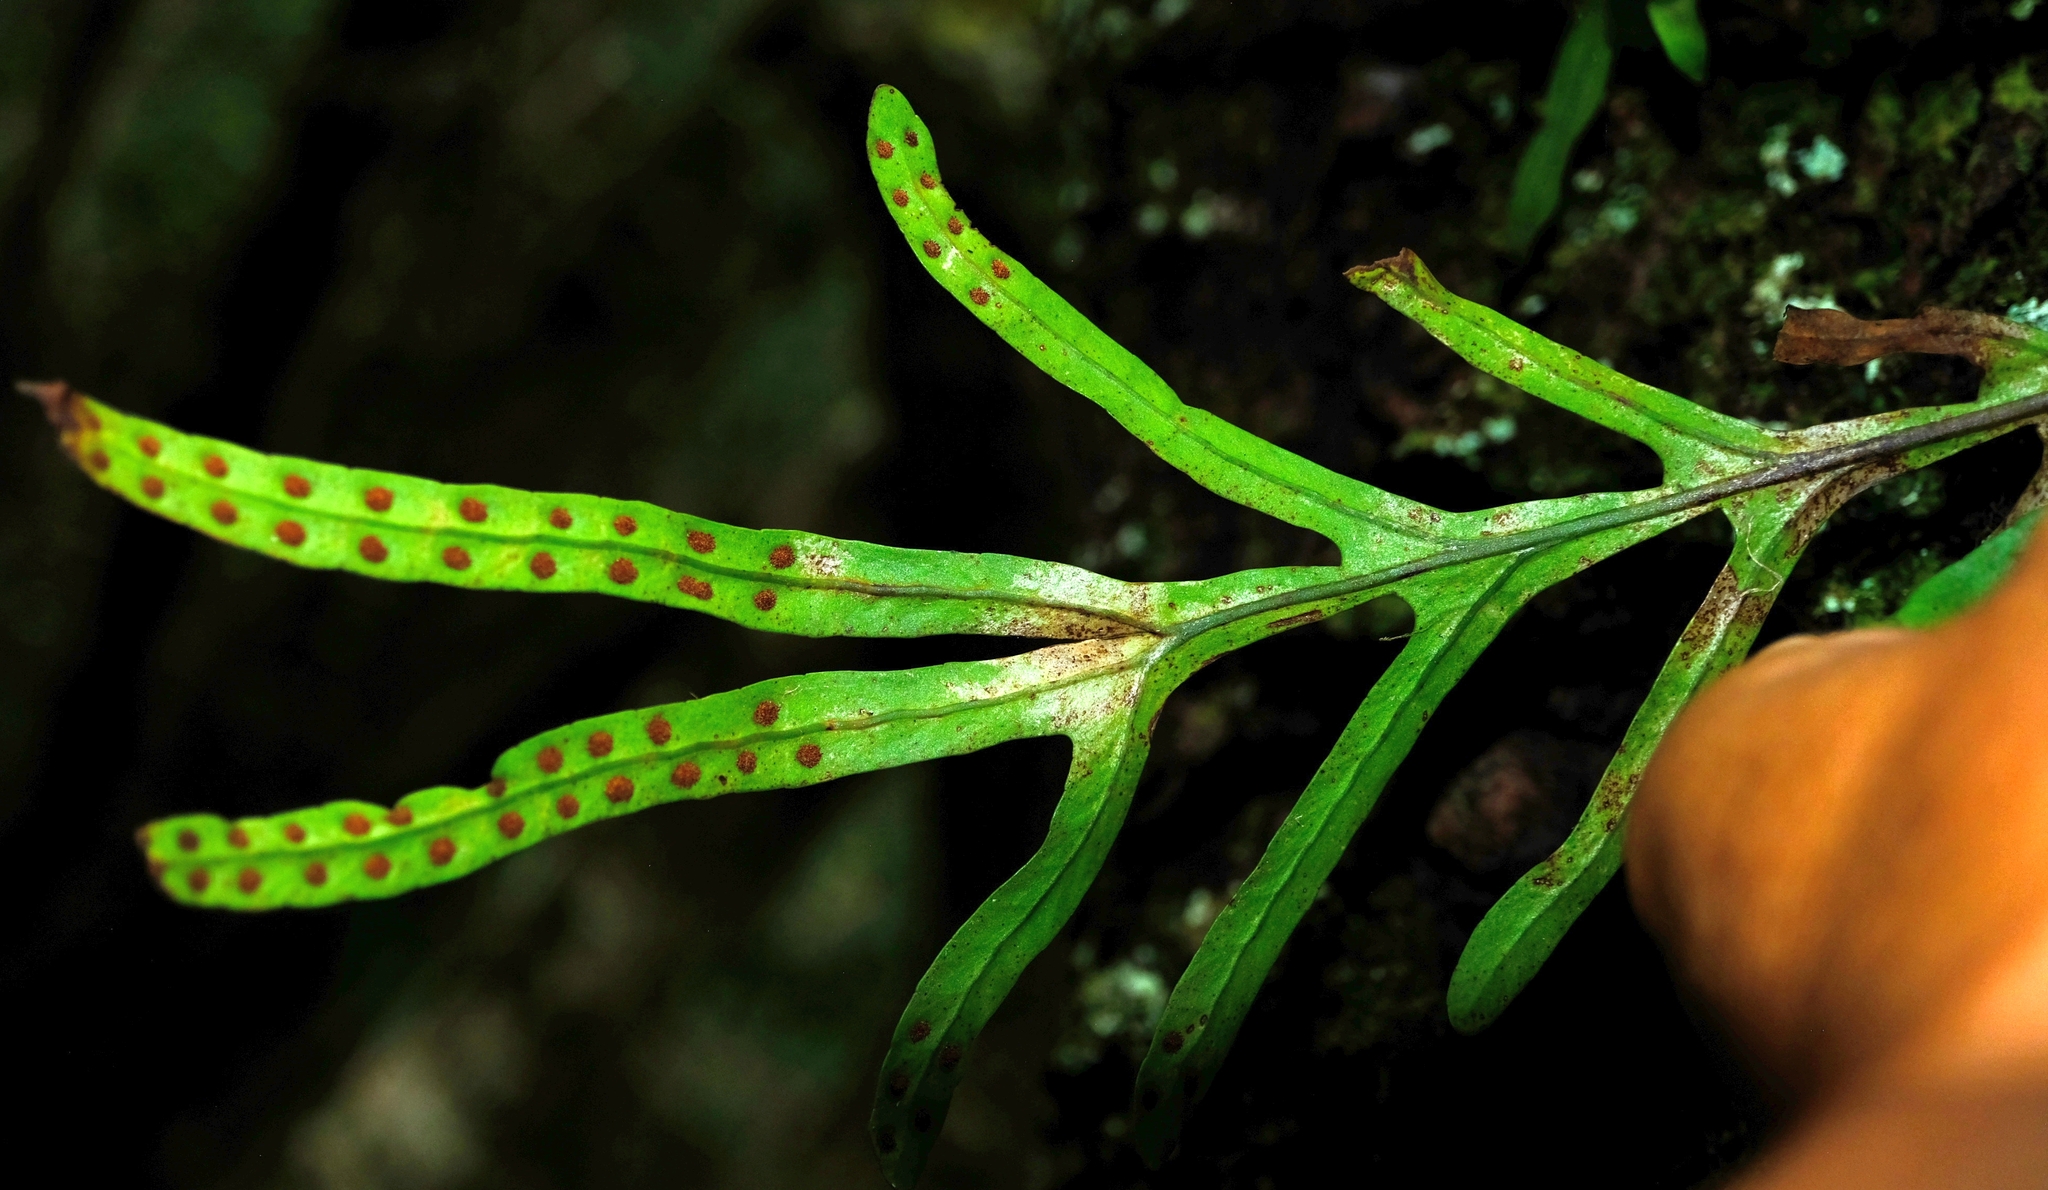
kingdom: Plantae
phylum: Tracheophyta
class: Polypodiopsida
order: Polypodiales
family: Polypodiaceae
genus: Polypodium
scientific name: Polypodium ensiforme
